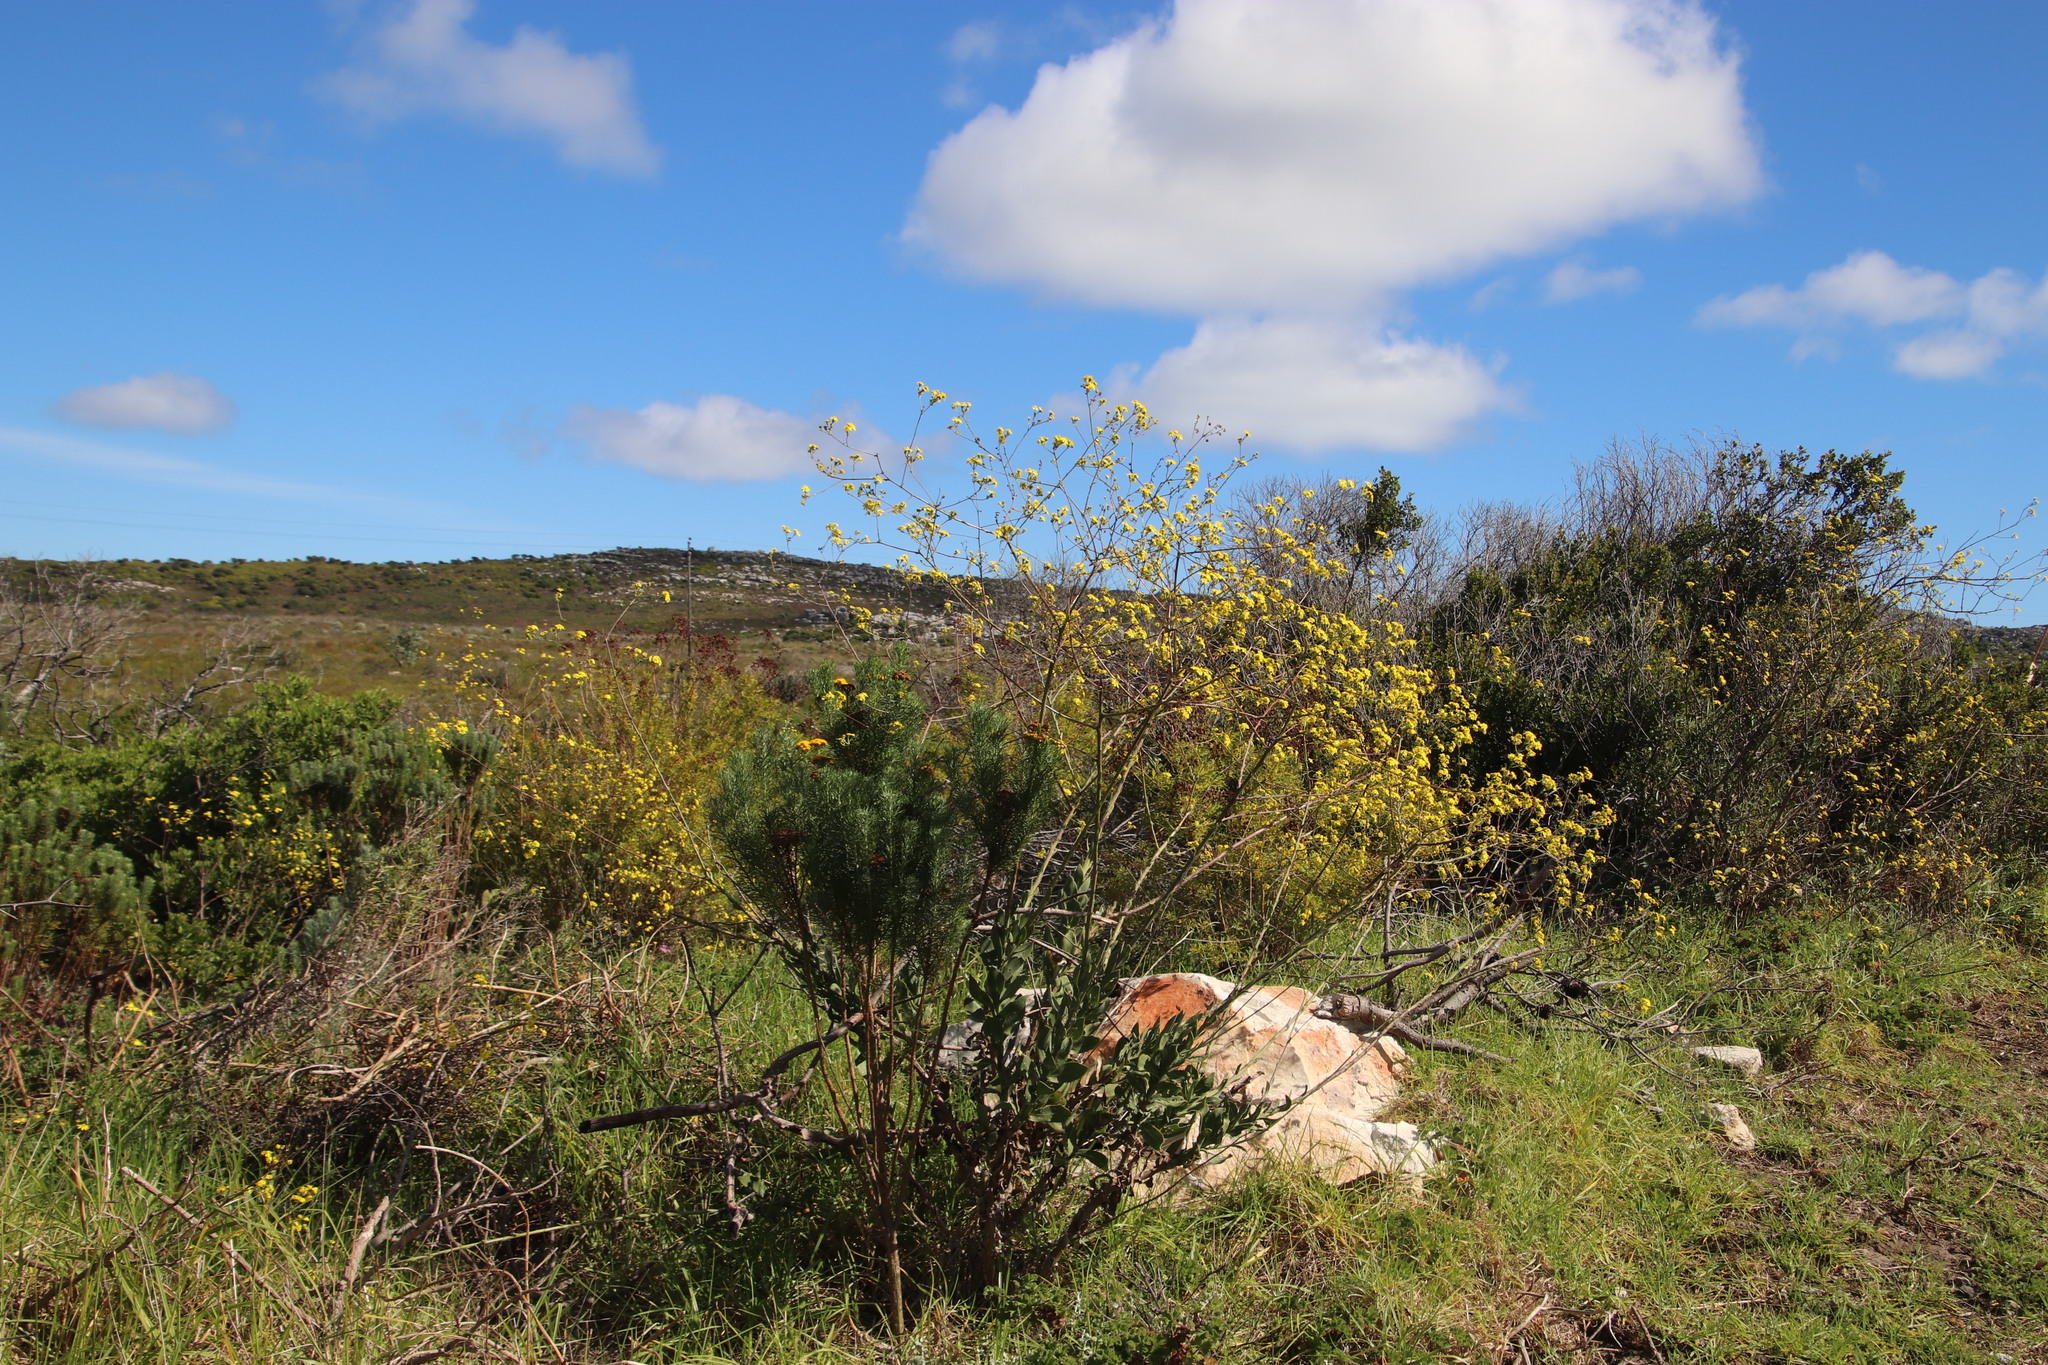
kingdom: Plantae
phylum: Tracheophyta
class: Magnoliopsida
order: Asterales
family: Asteraceae
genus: Othonna
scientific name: Othonna quinquedentata
